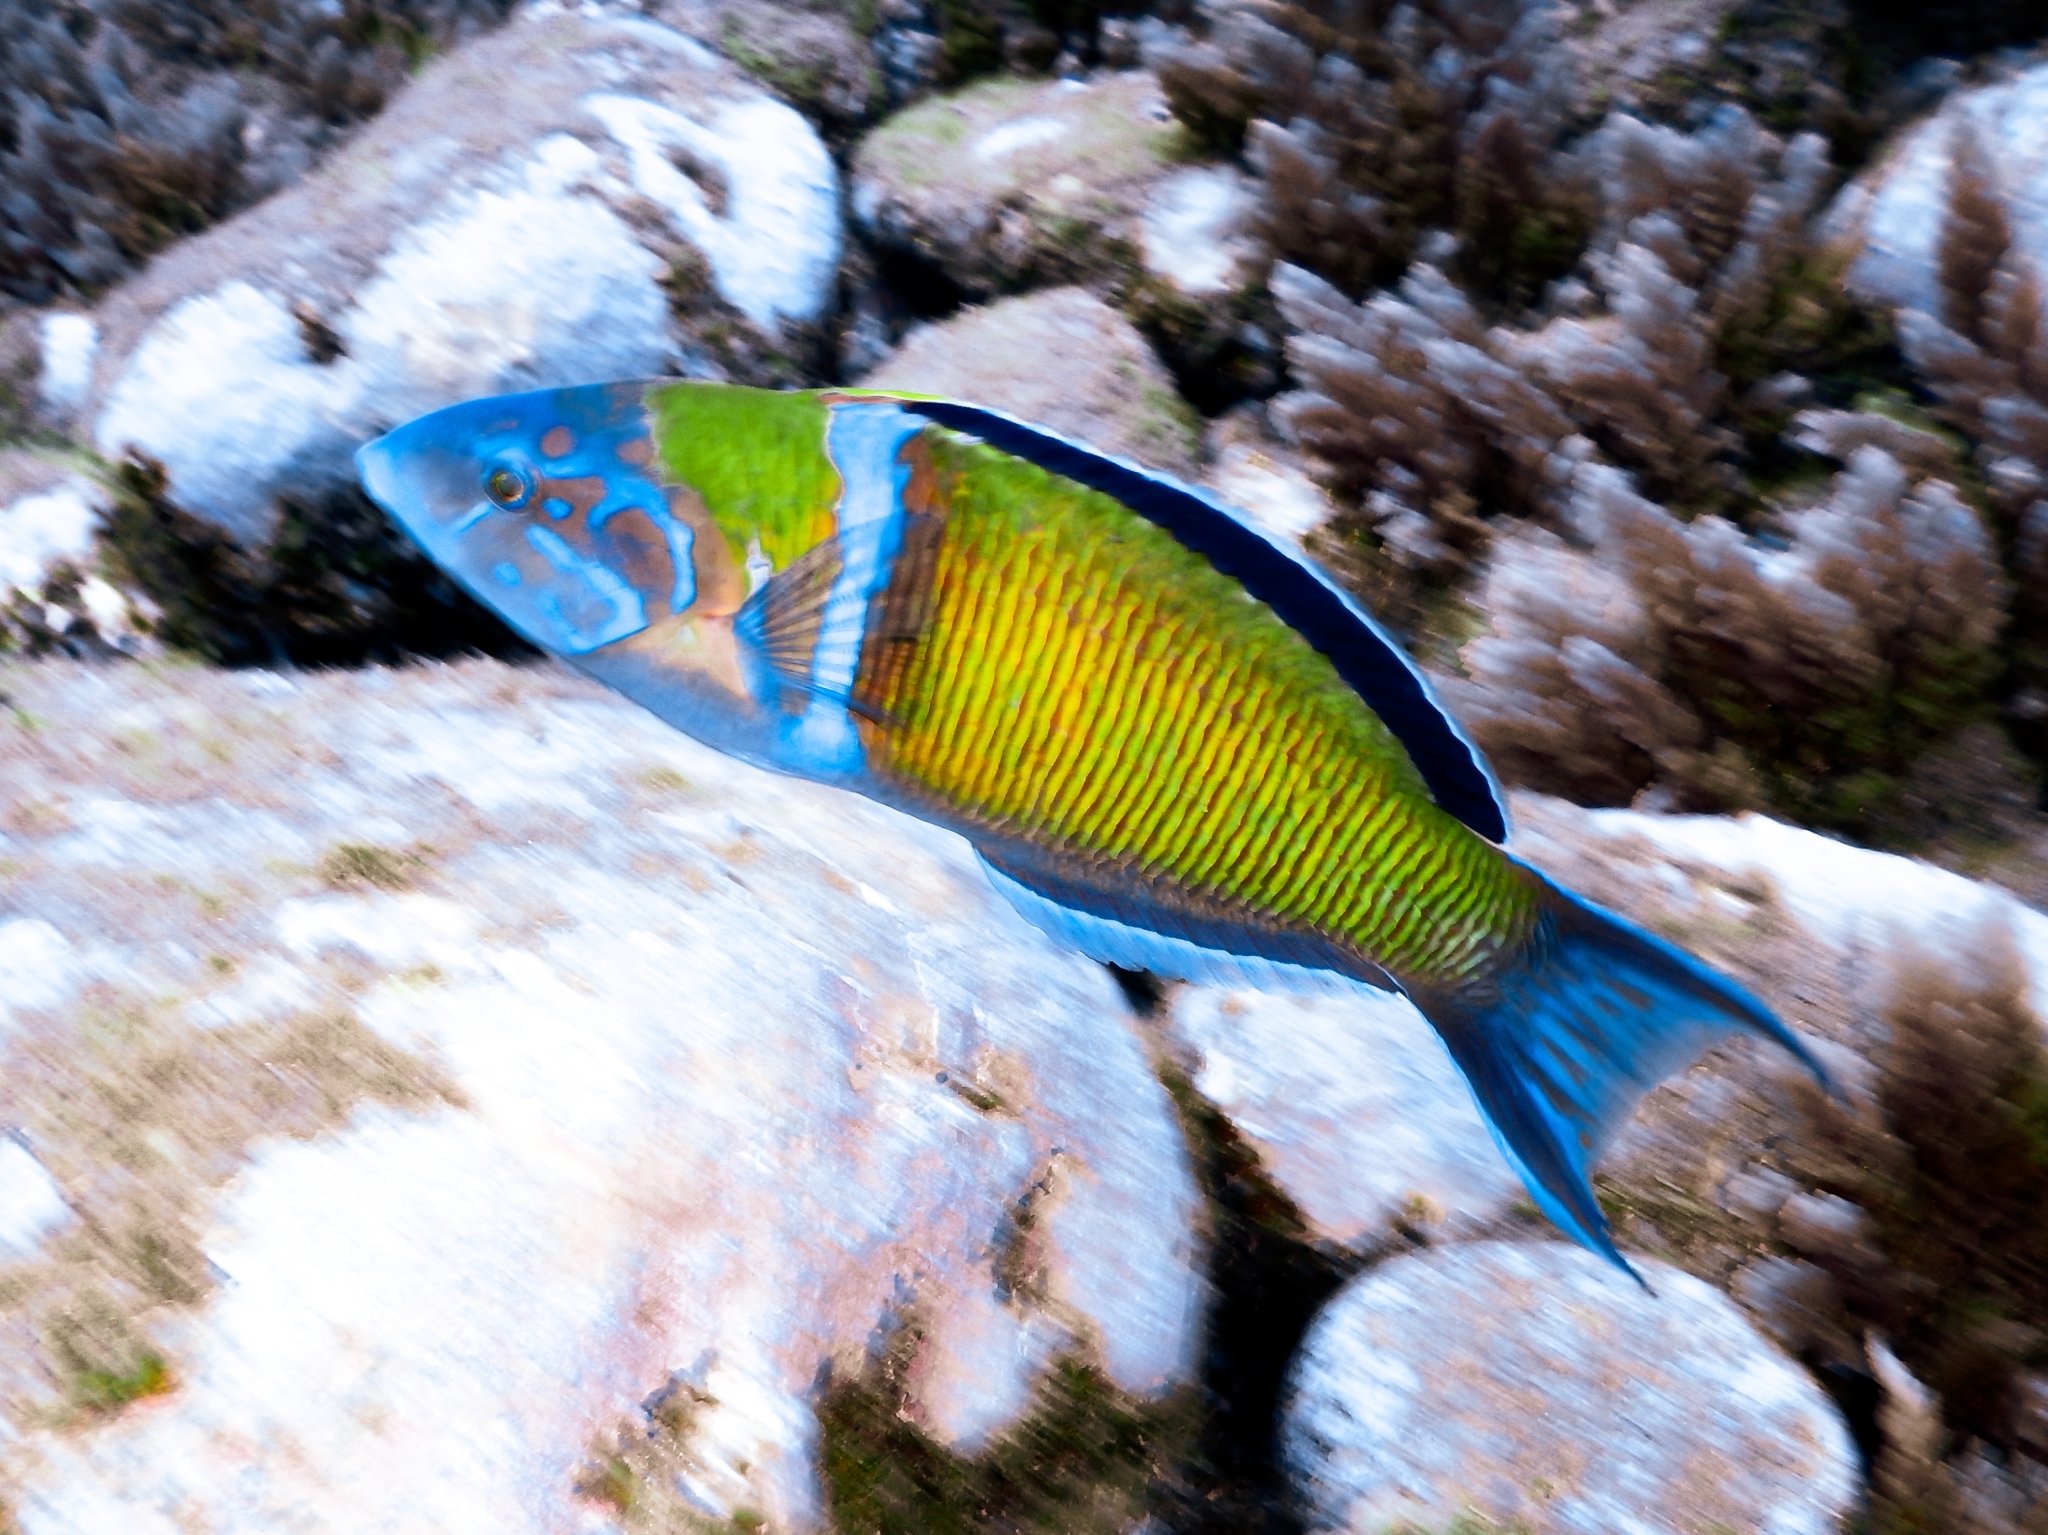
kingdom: Animalia
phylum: Chordata
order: Perciformes
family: Labridae
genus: Thalassoma
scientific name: Thalassoma pavo
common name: Ornate wrasse
